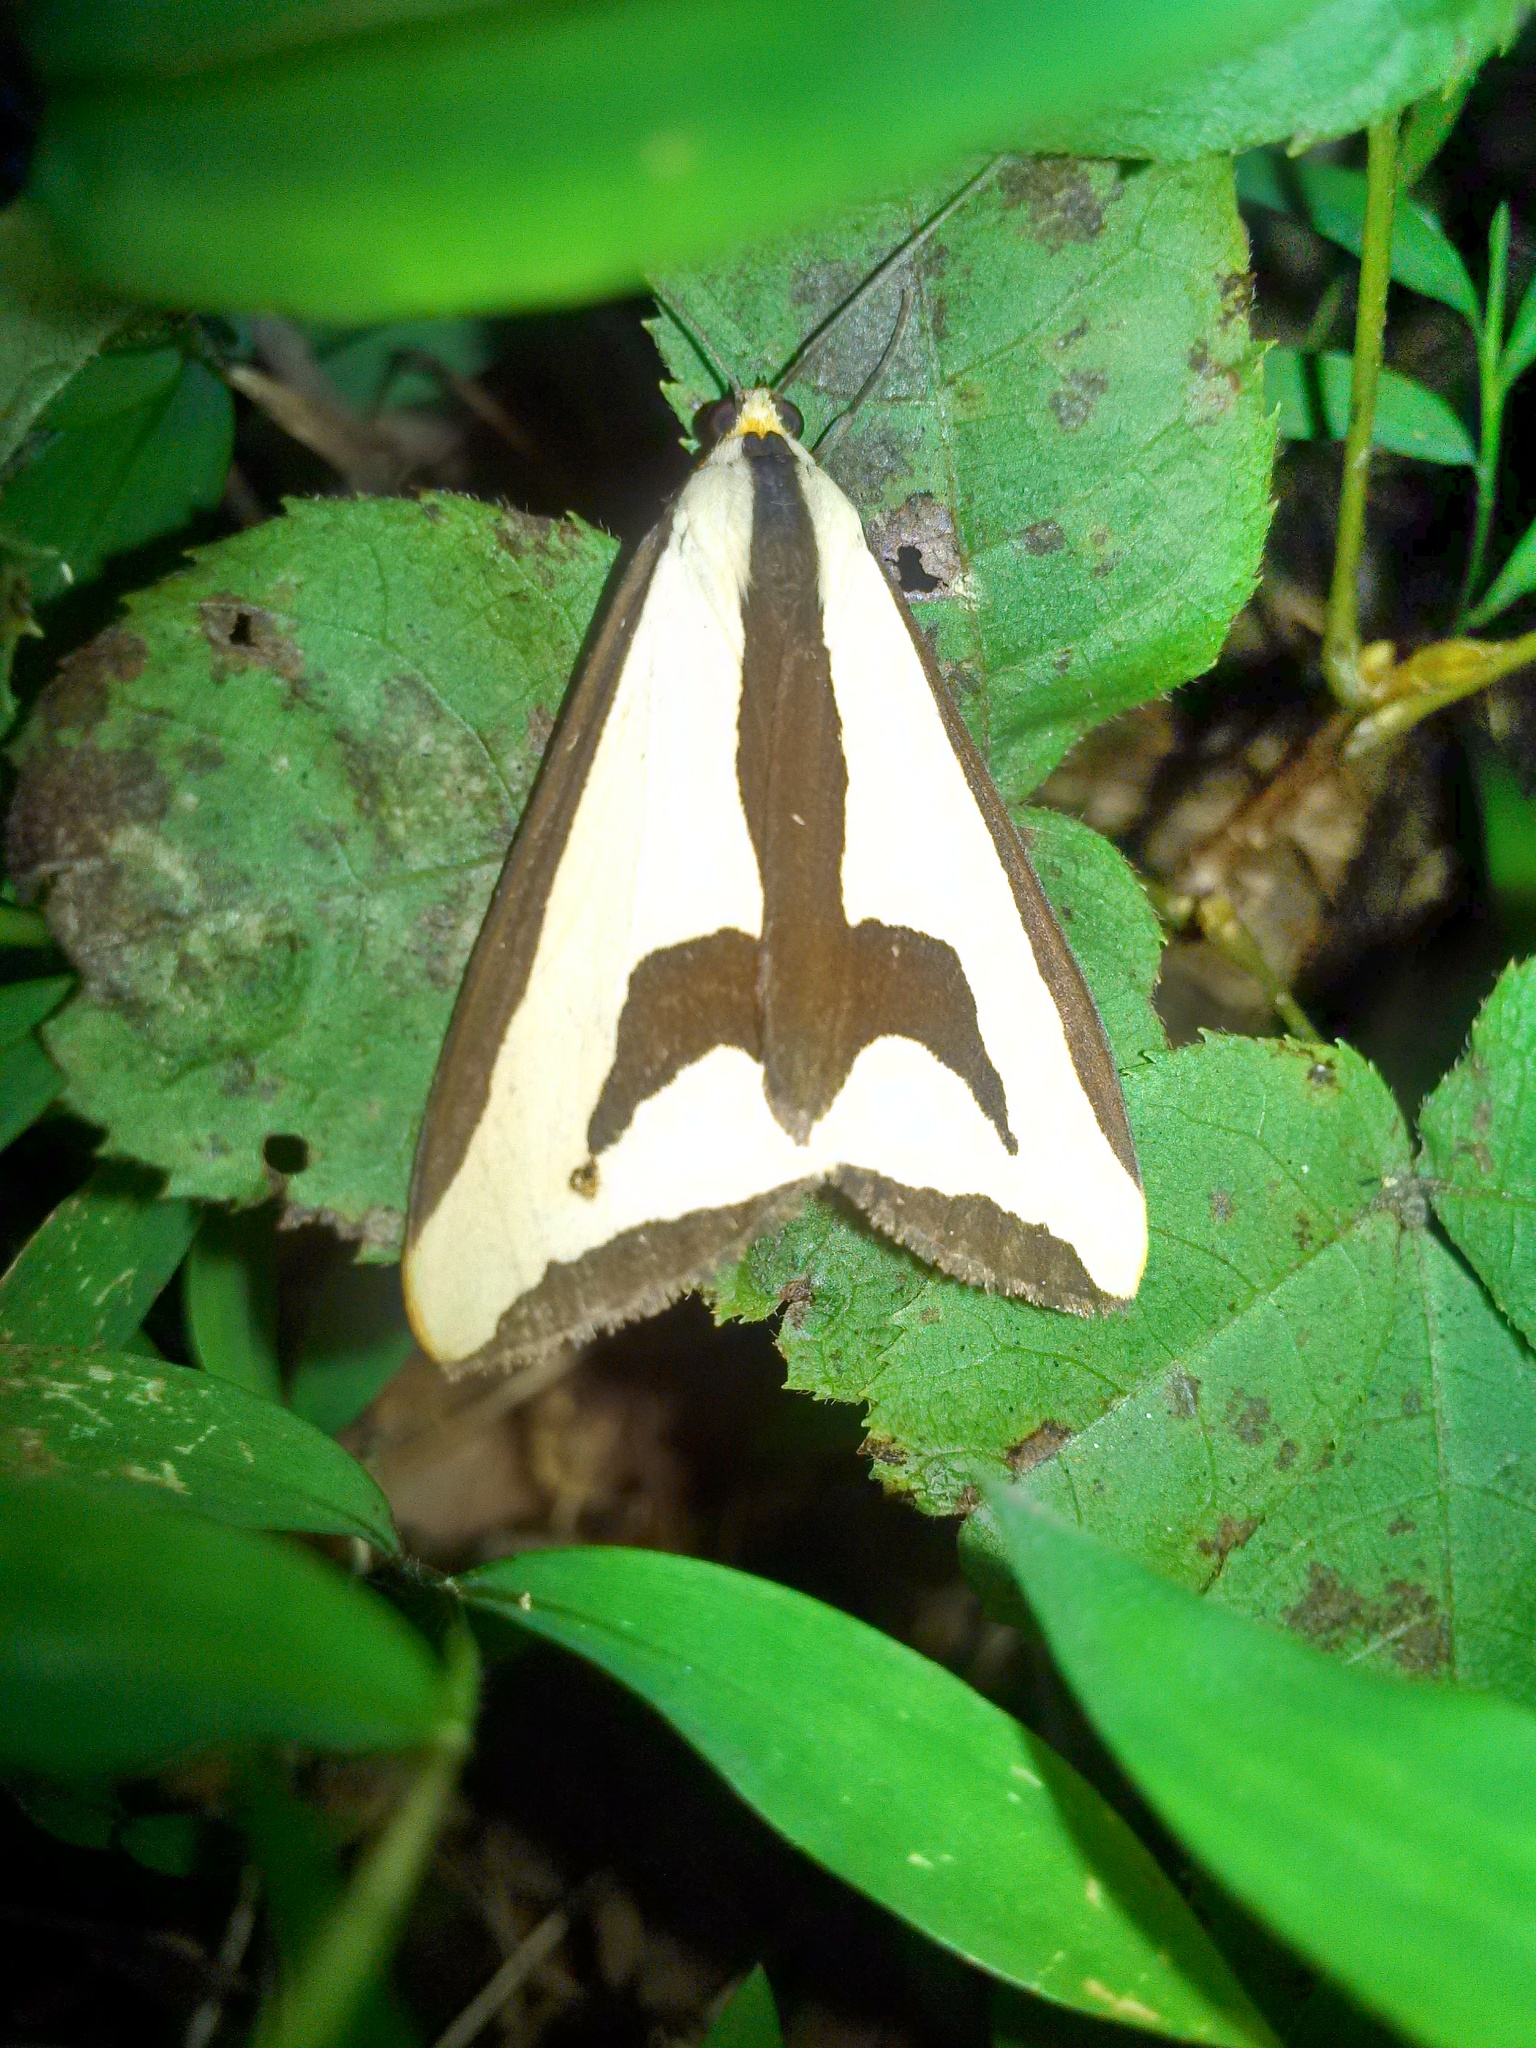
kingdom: Animalia
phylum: Arthropoda
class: Insecta
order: Lepidoptera
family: Erebidae
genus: Haploa
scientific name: Haploa clymene
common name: Clymene moth
